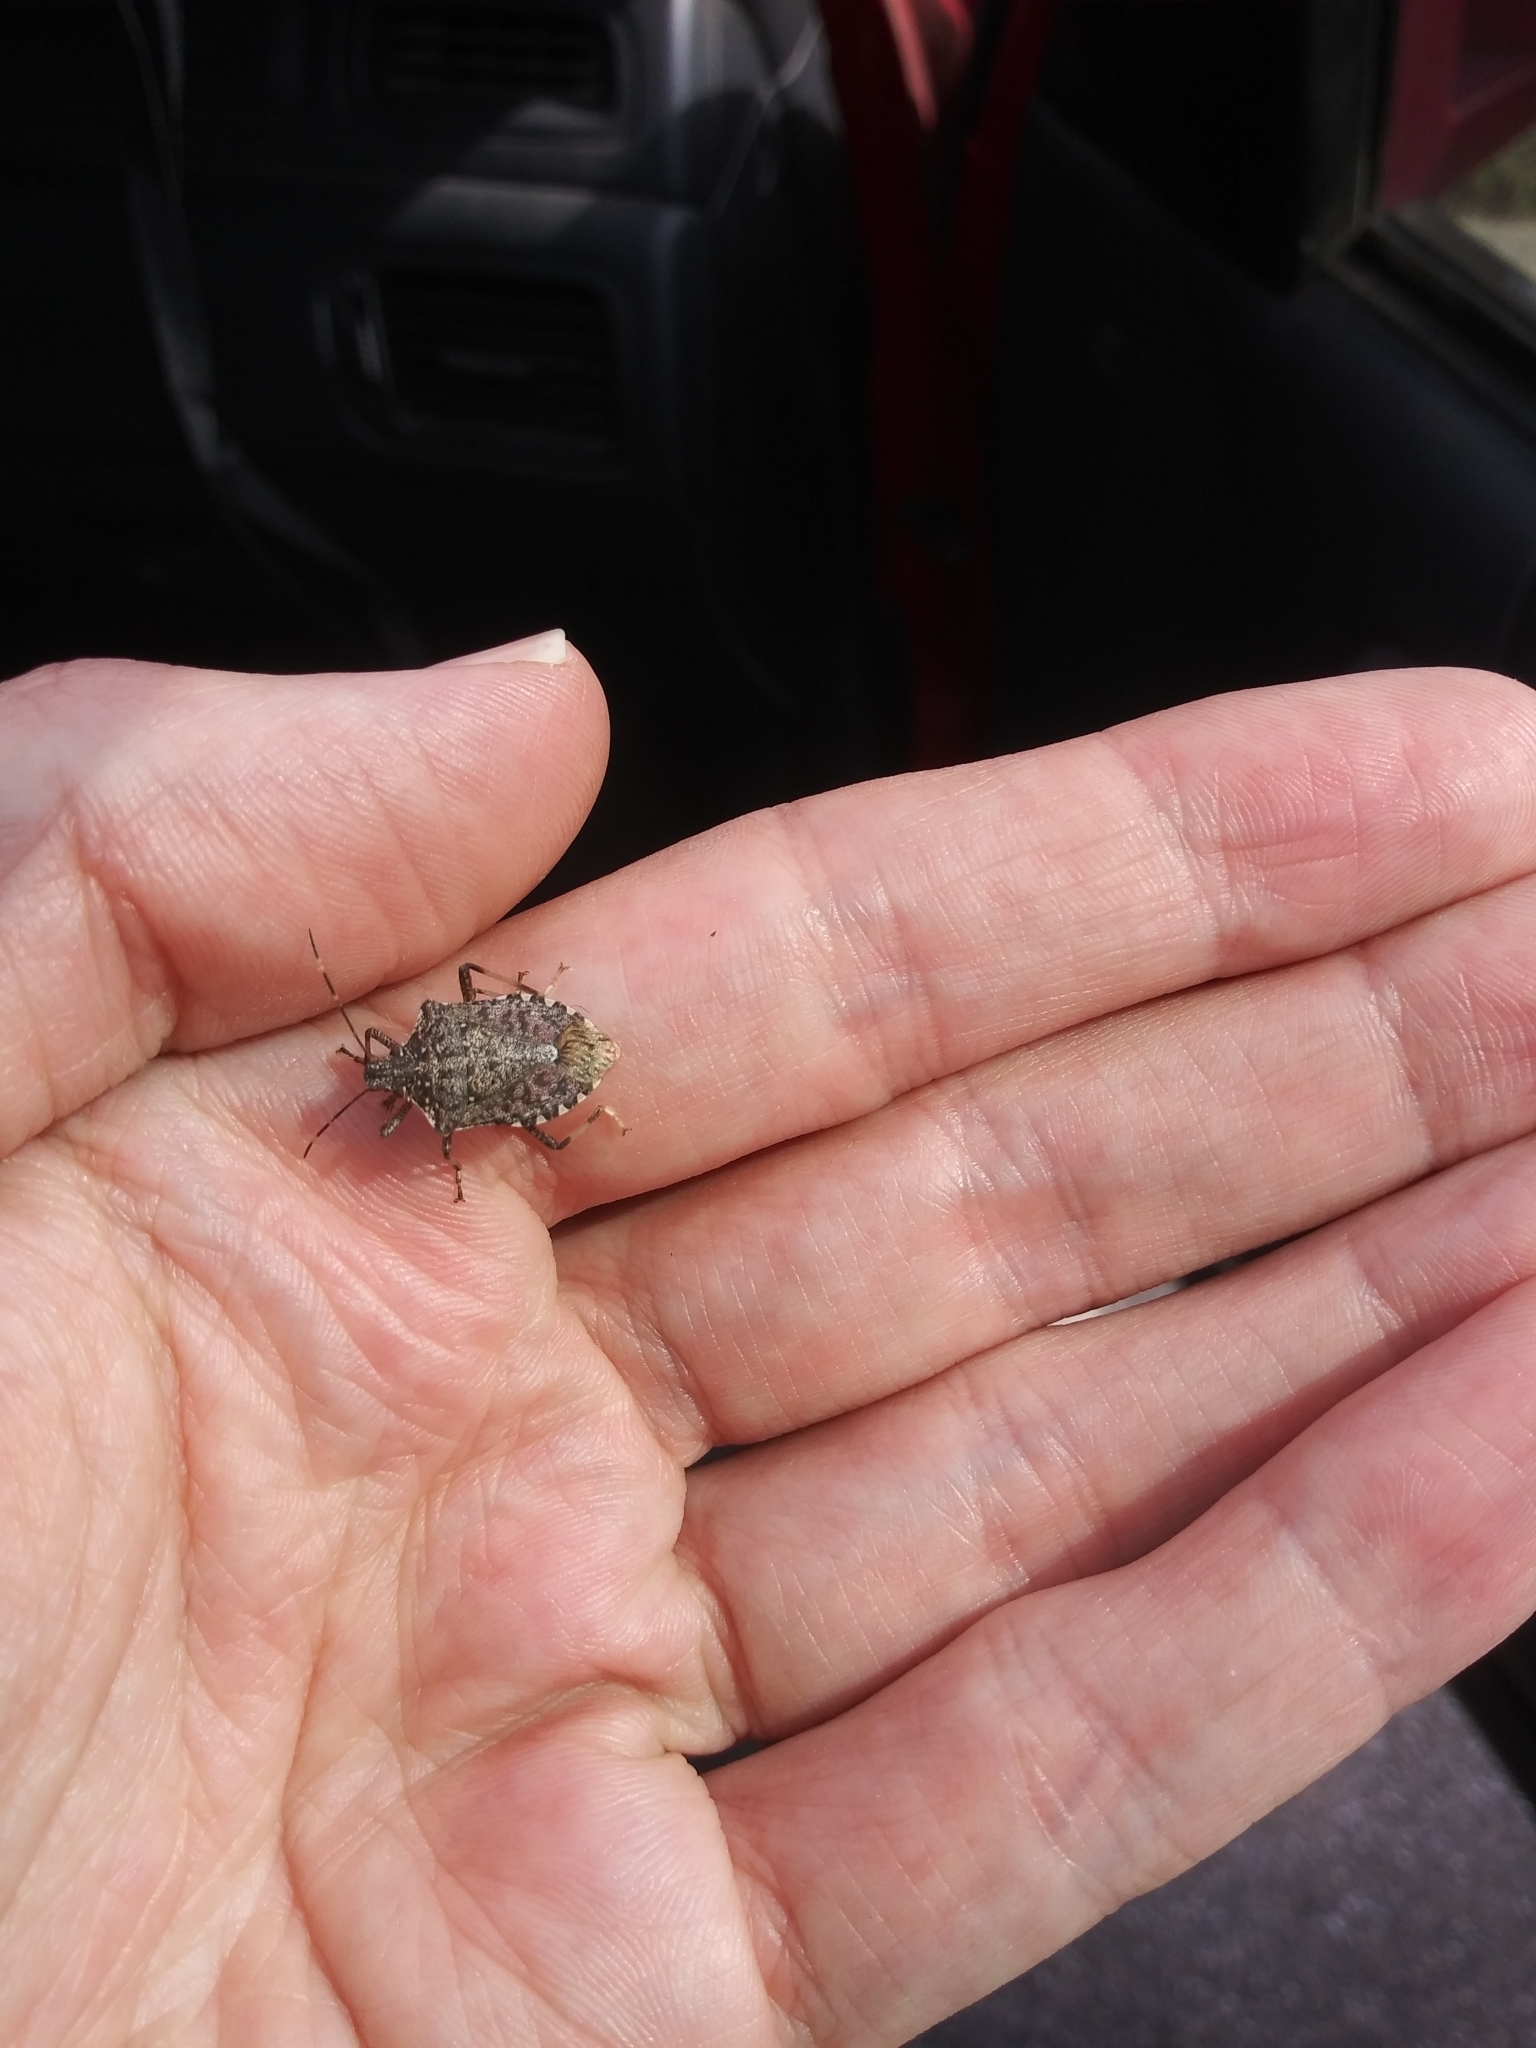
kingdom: Animalia
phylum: Arthropoda
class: Insecta
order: Hemiptera
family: Pentatomidae
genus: Halyomorpha
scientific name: Halyomorpha halys
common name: Brown marmorated stink bug
